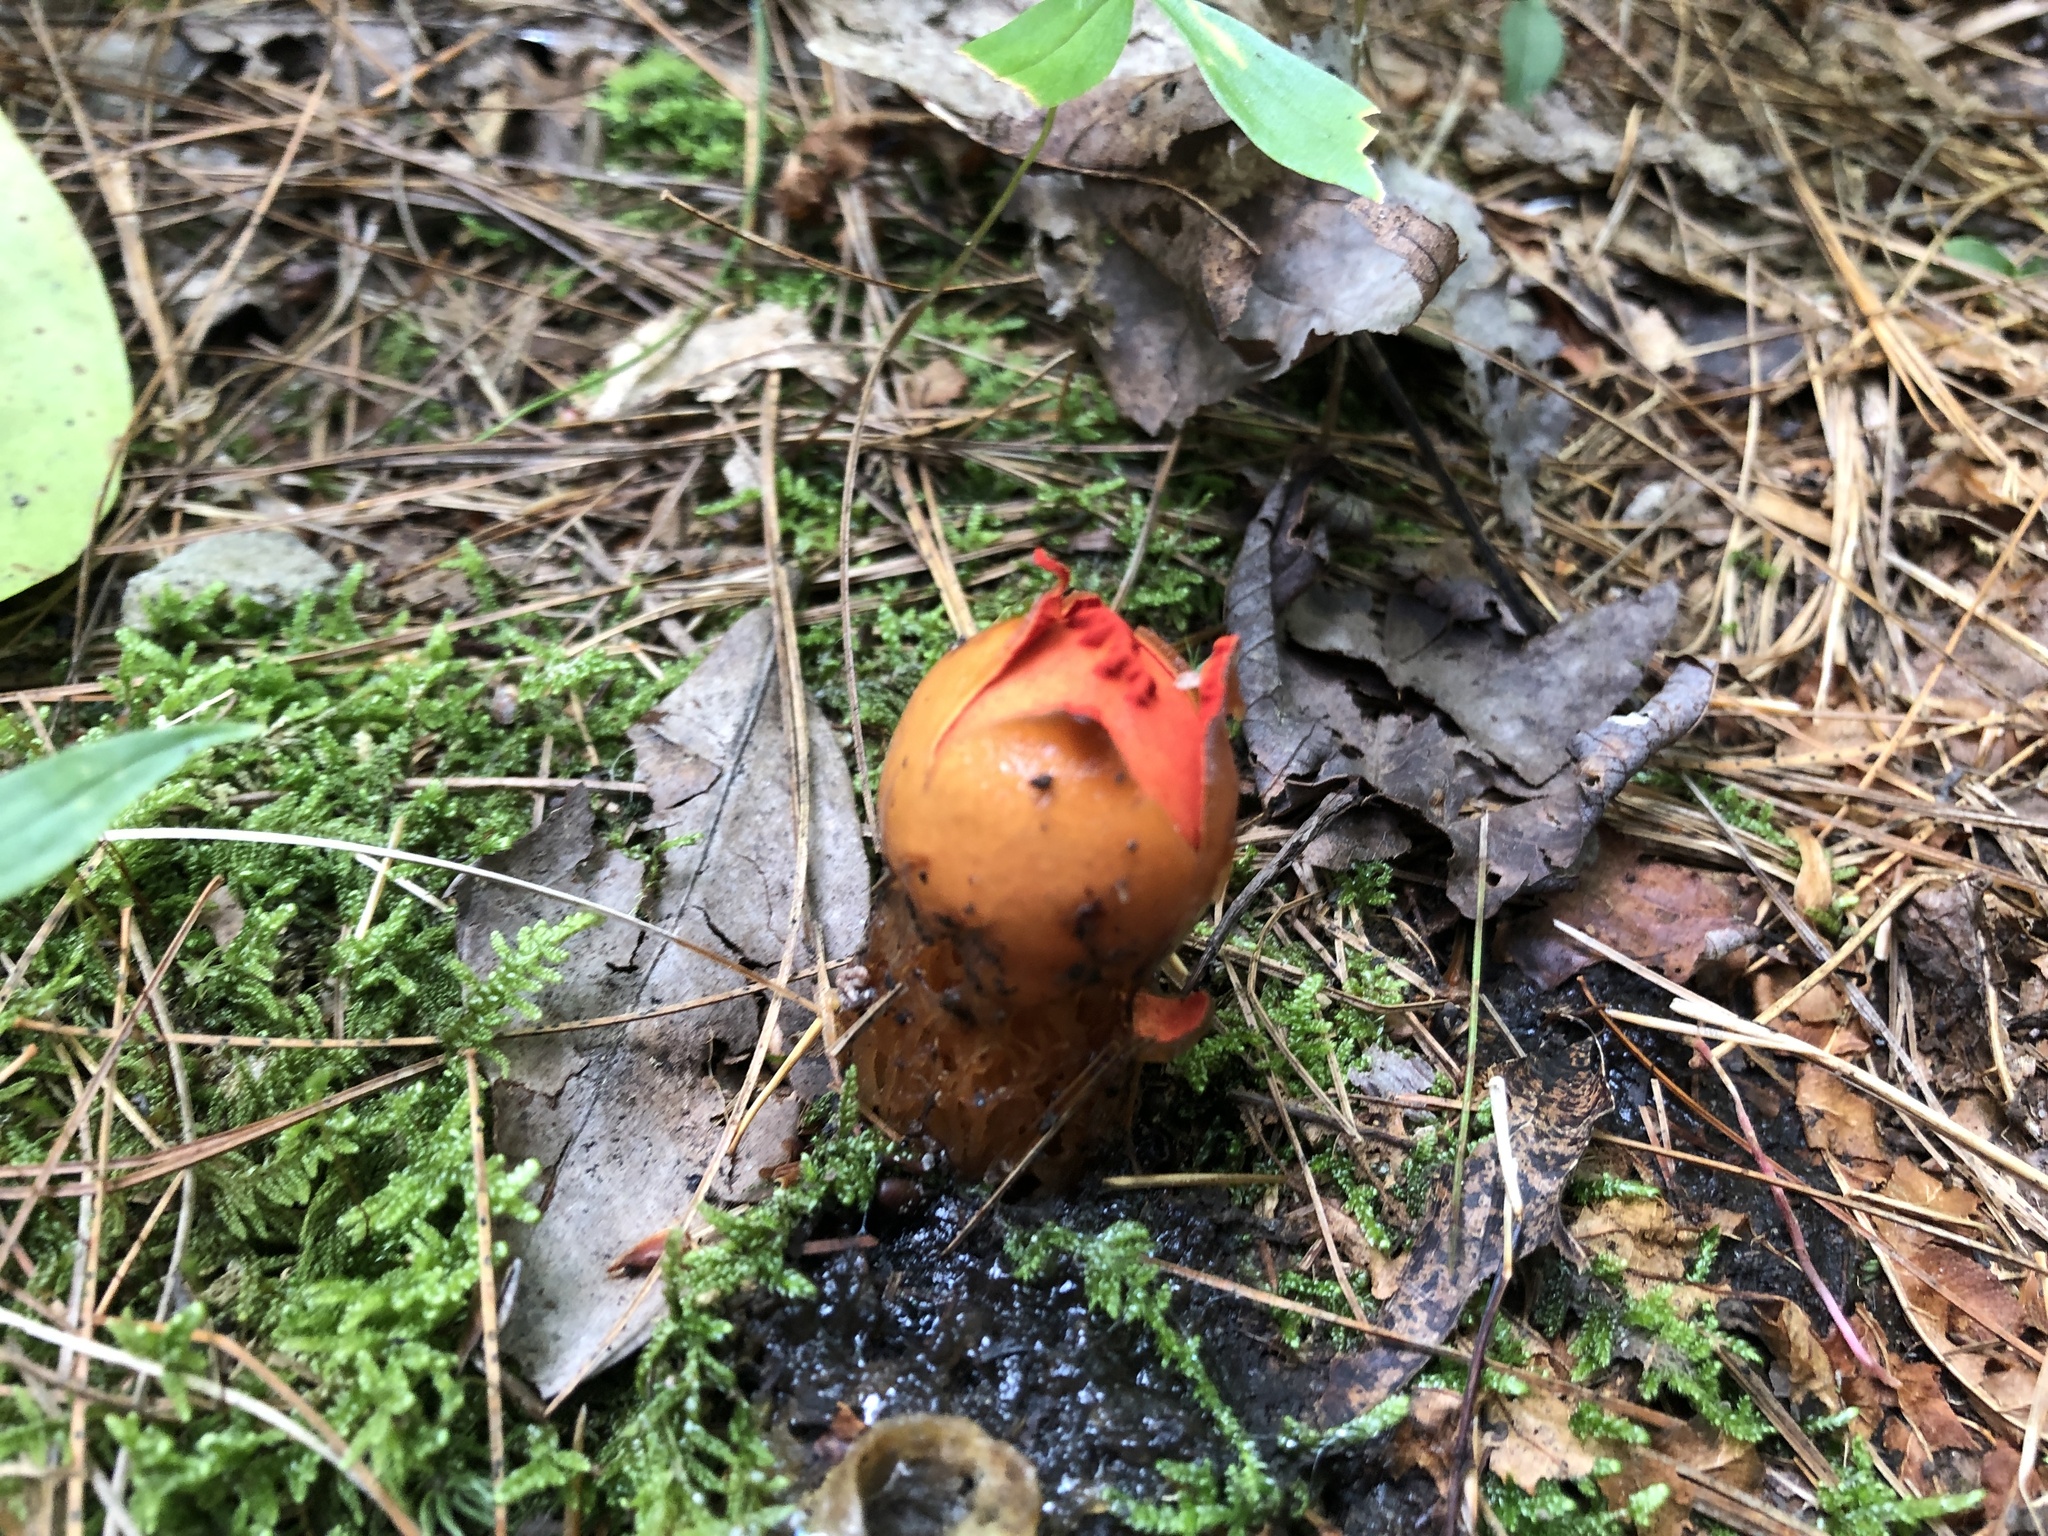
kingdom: Fungi
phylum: Basidiomycota
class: Agaricomycetes
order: Boletales
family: Calostomataceae
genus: Calostoma
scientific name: Calostoma cinnabarinum
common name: Stalked puffball-in-aspic
